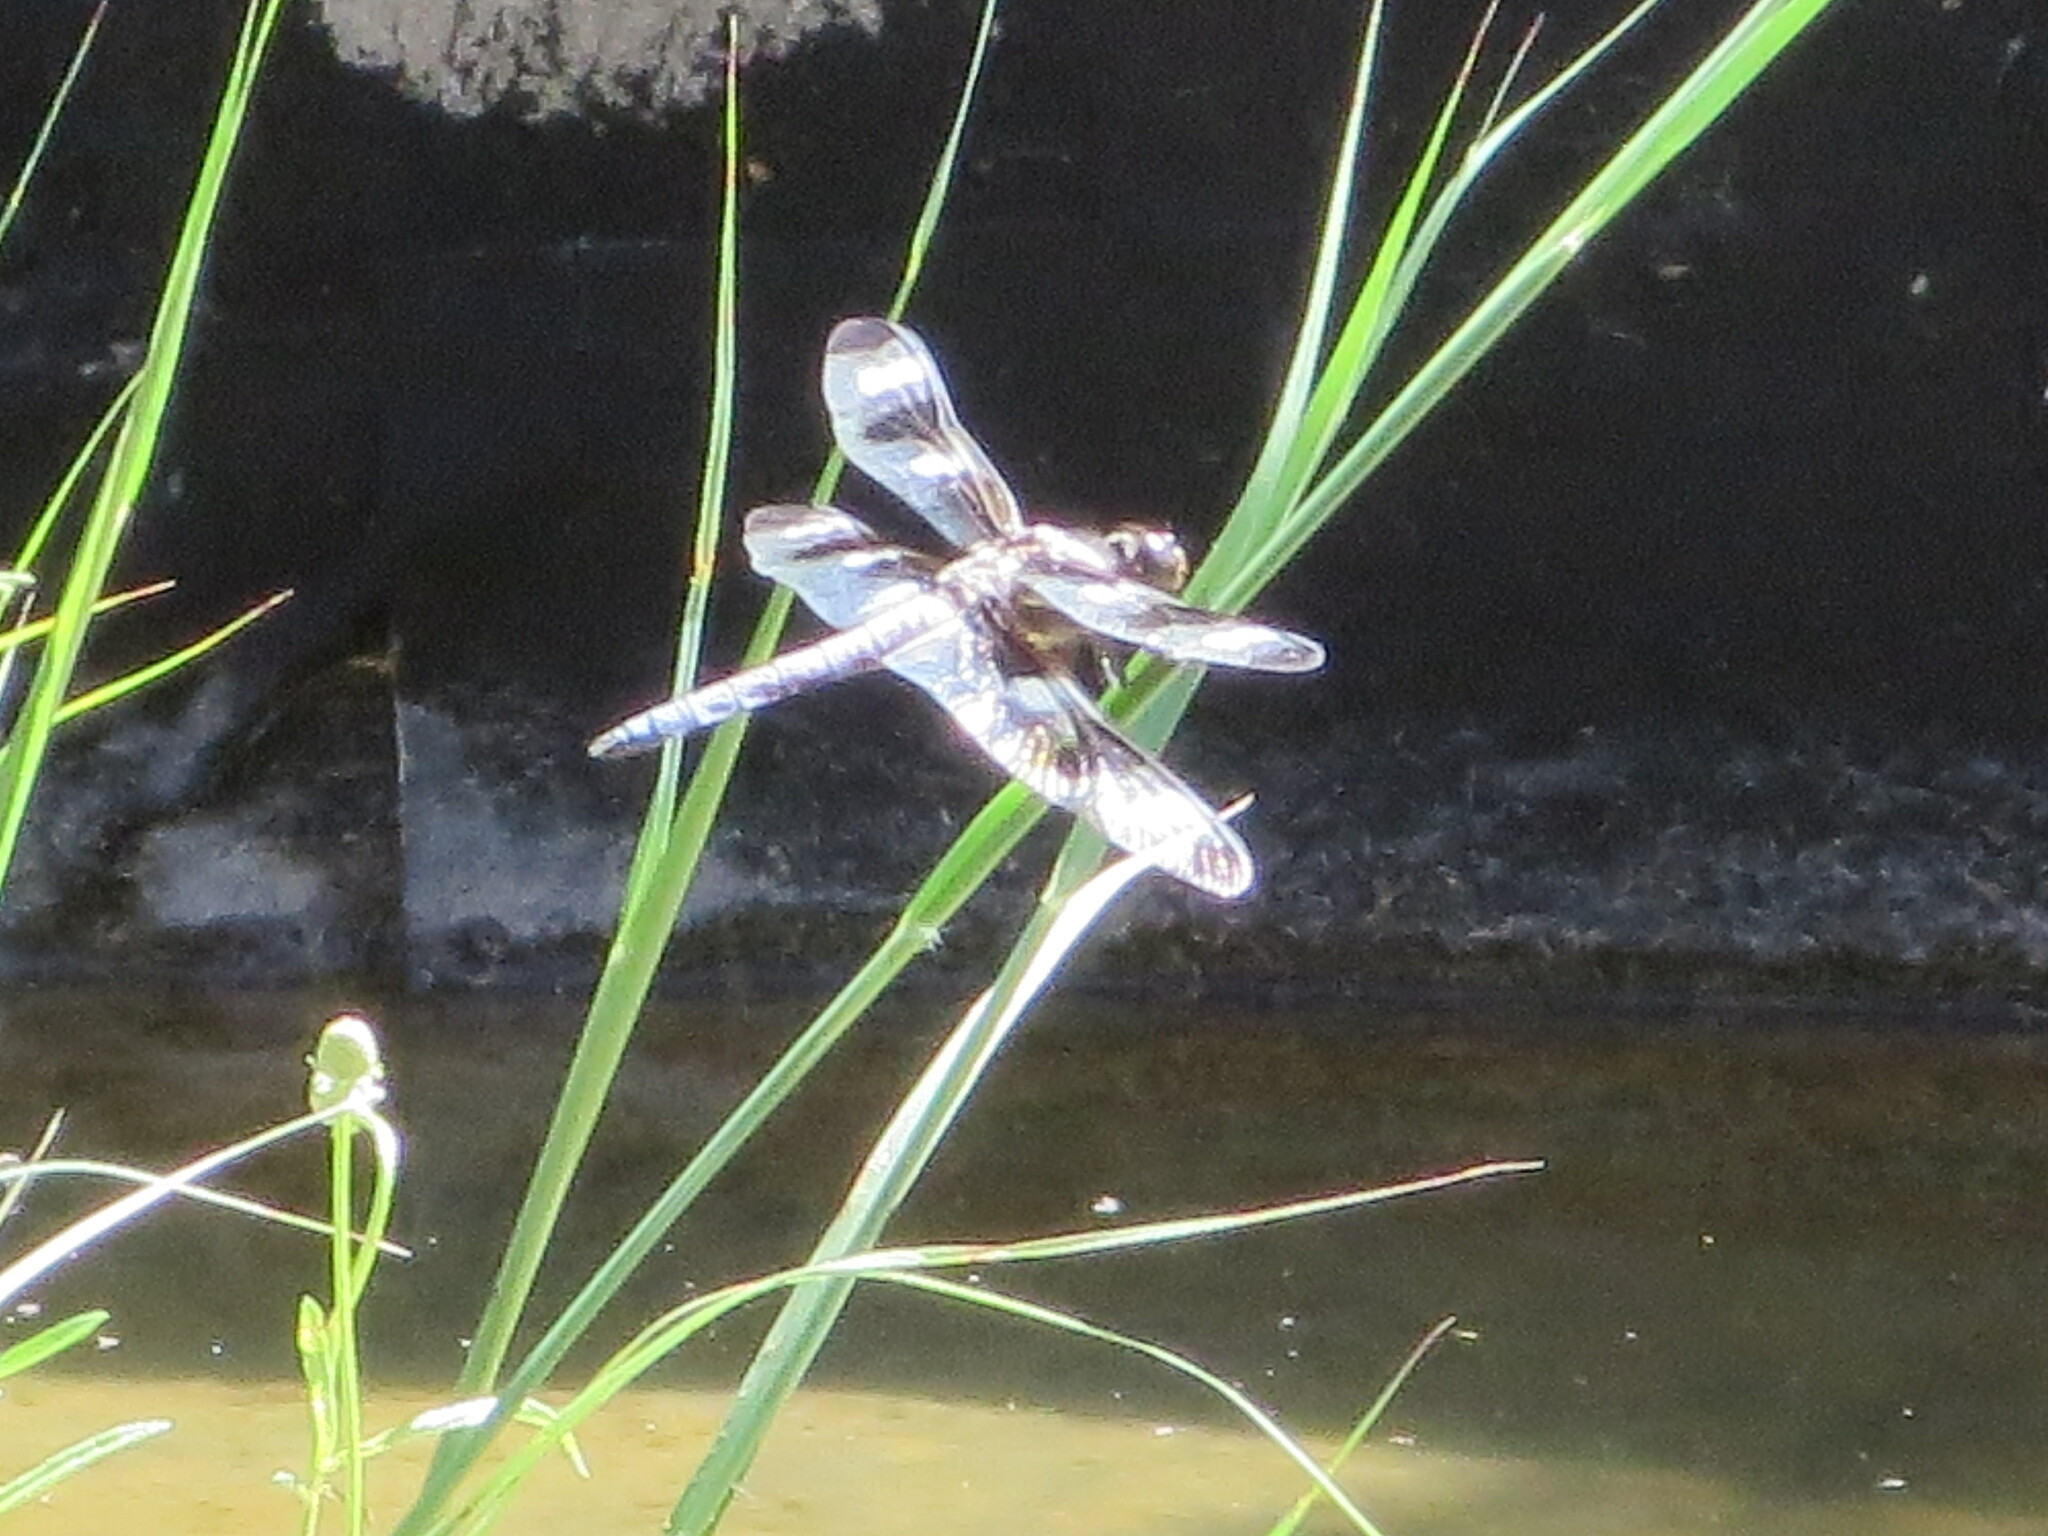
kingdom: Animalia
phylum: Arthropoda
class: Insecta
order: Odonata
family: Libellulidae
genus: Libellula
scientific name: Libellula pulchella
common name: Twelve-spotted skimmer
